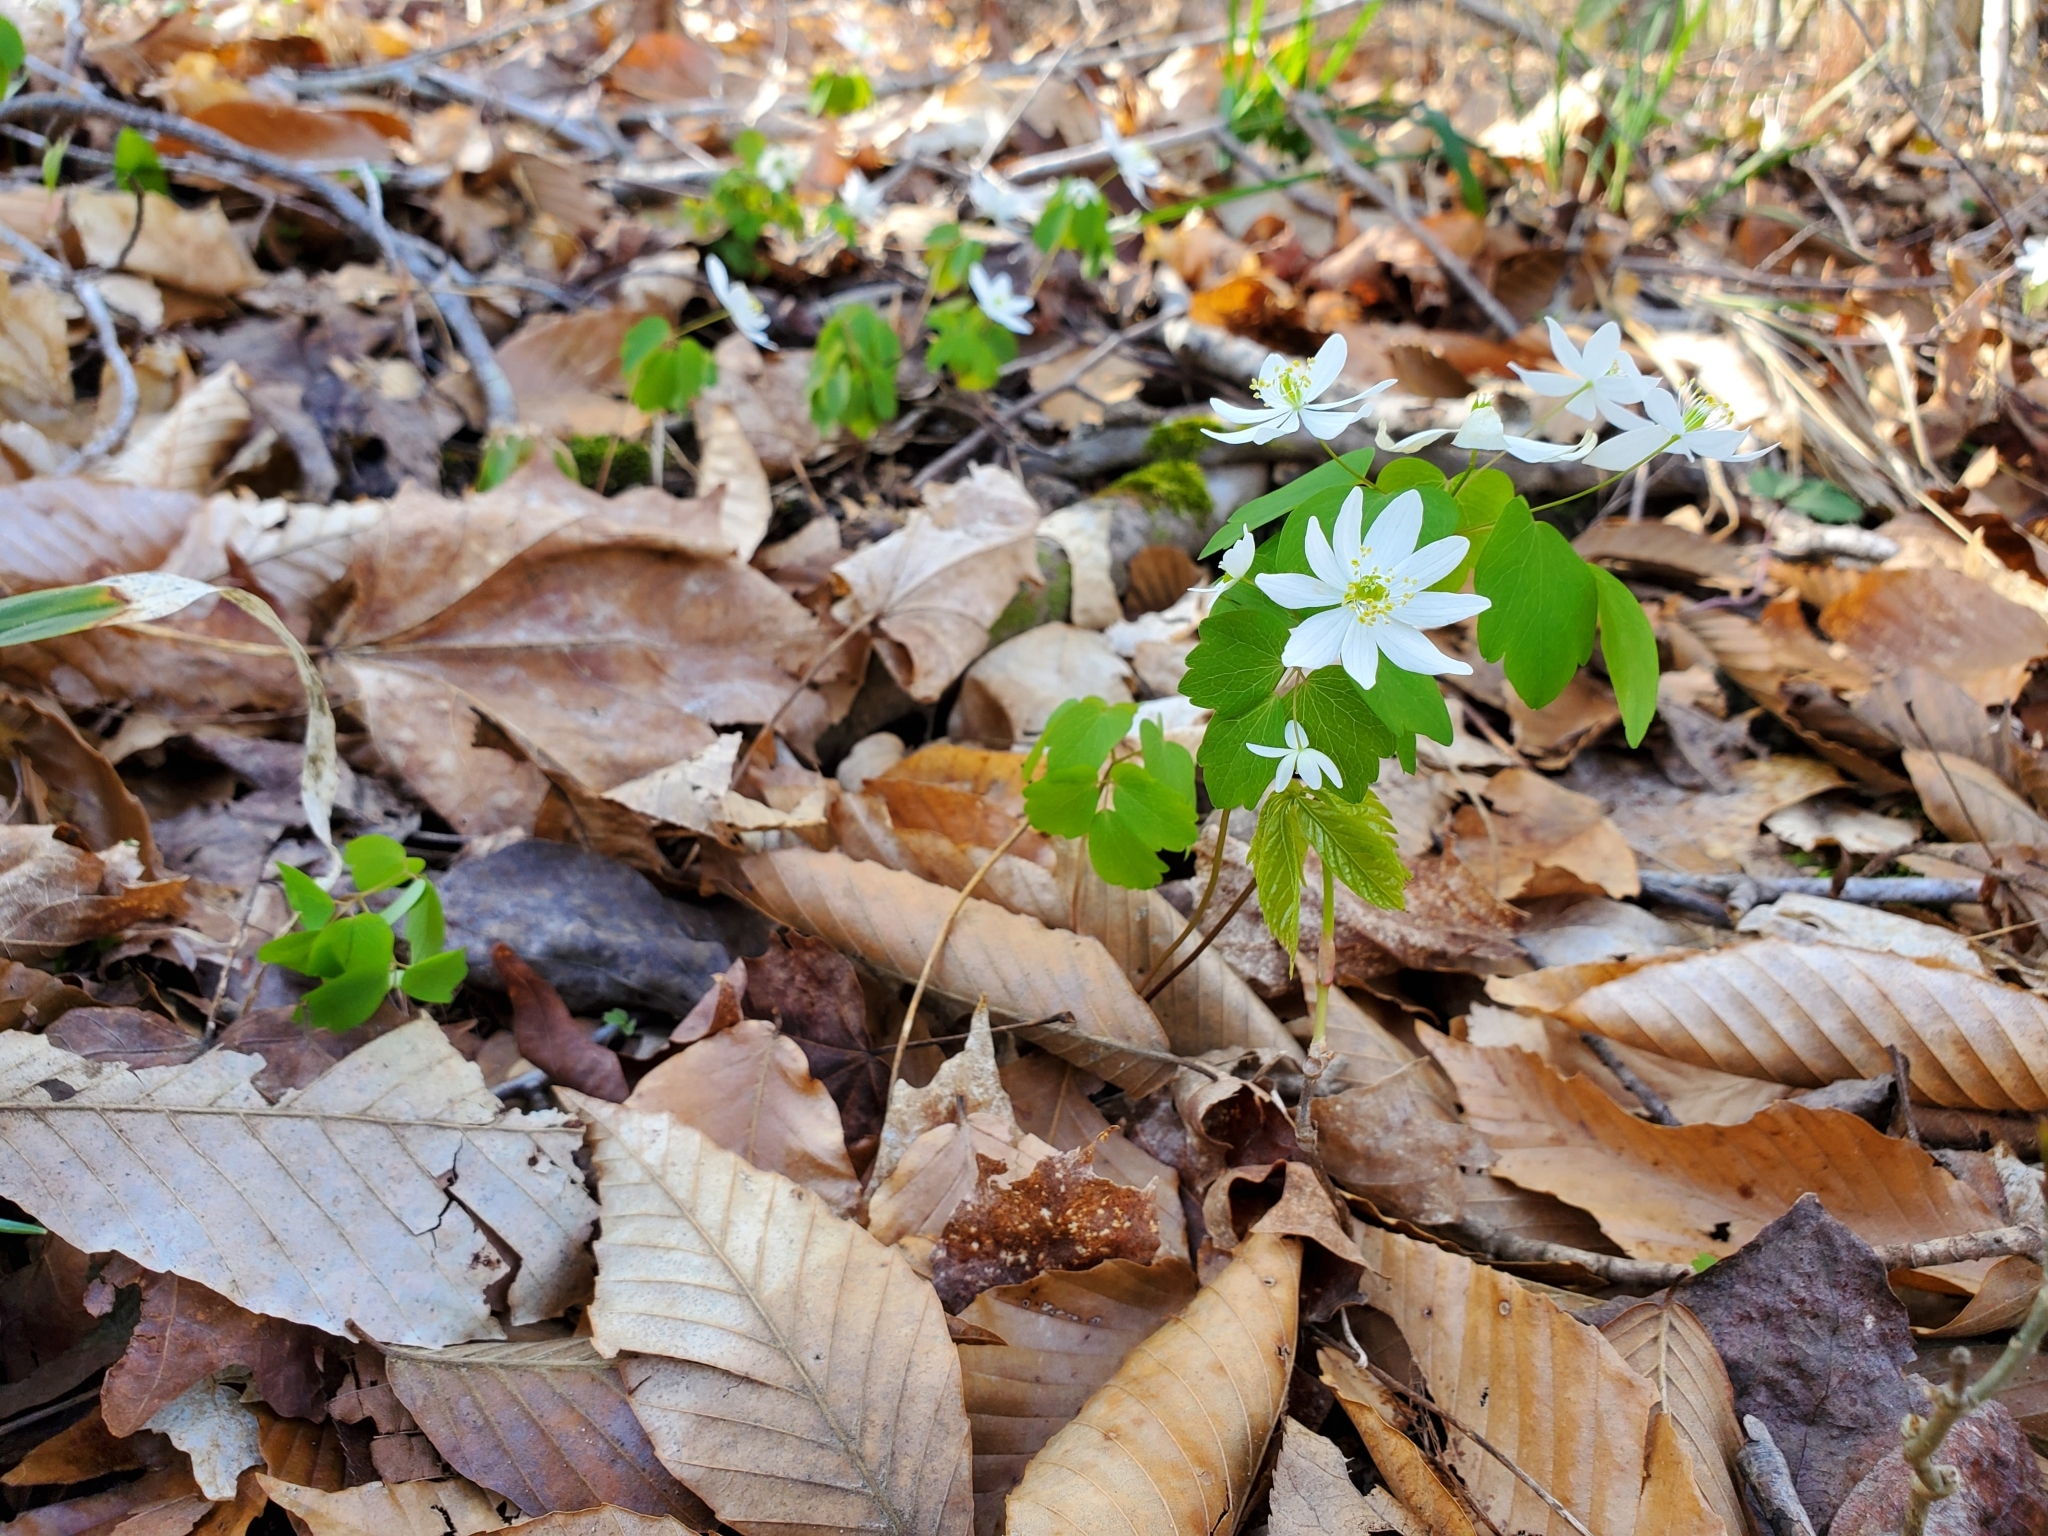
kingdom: Plantae
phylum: Tracheophyta
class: Magnoliopsida
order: Ranunculales
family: Ranunculaceae
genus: Thalictrum
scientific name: Thalictrum thalictroides
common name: Rue-anemone
